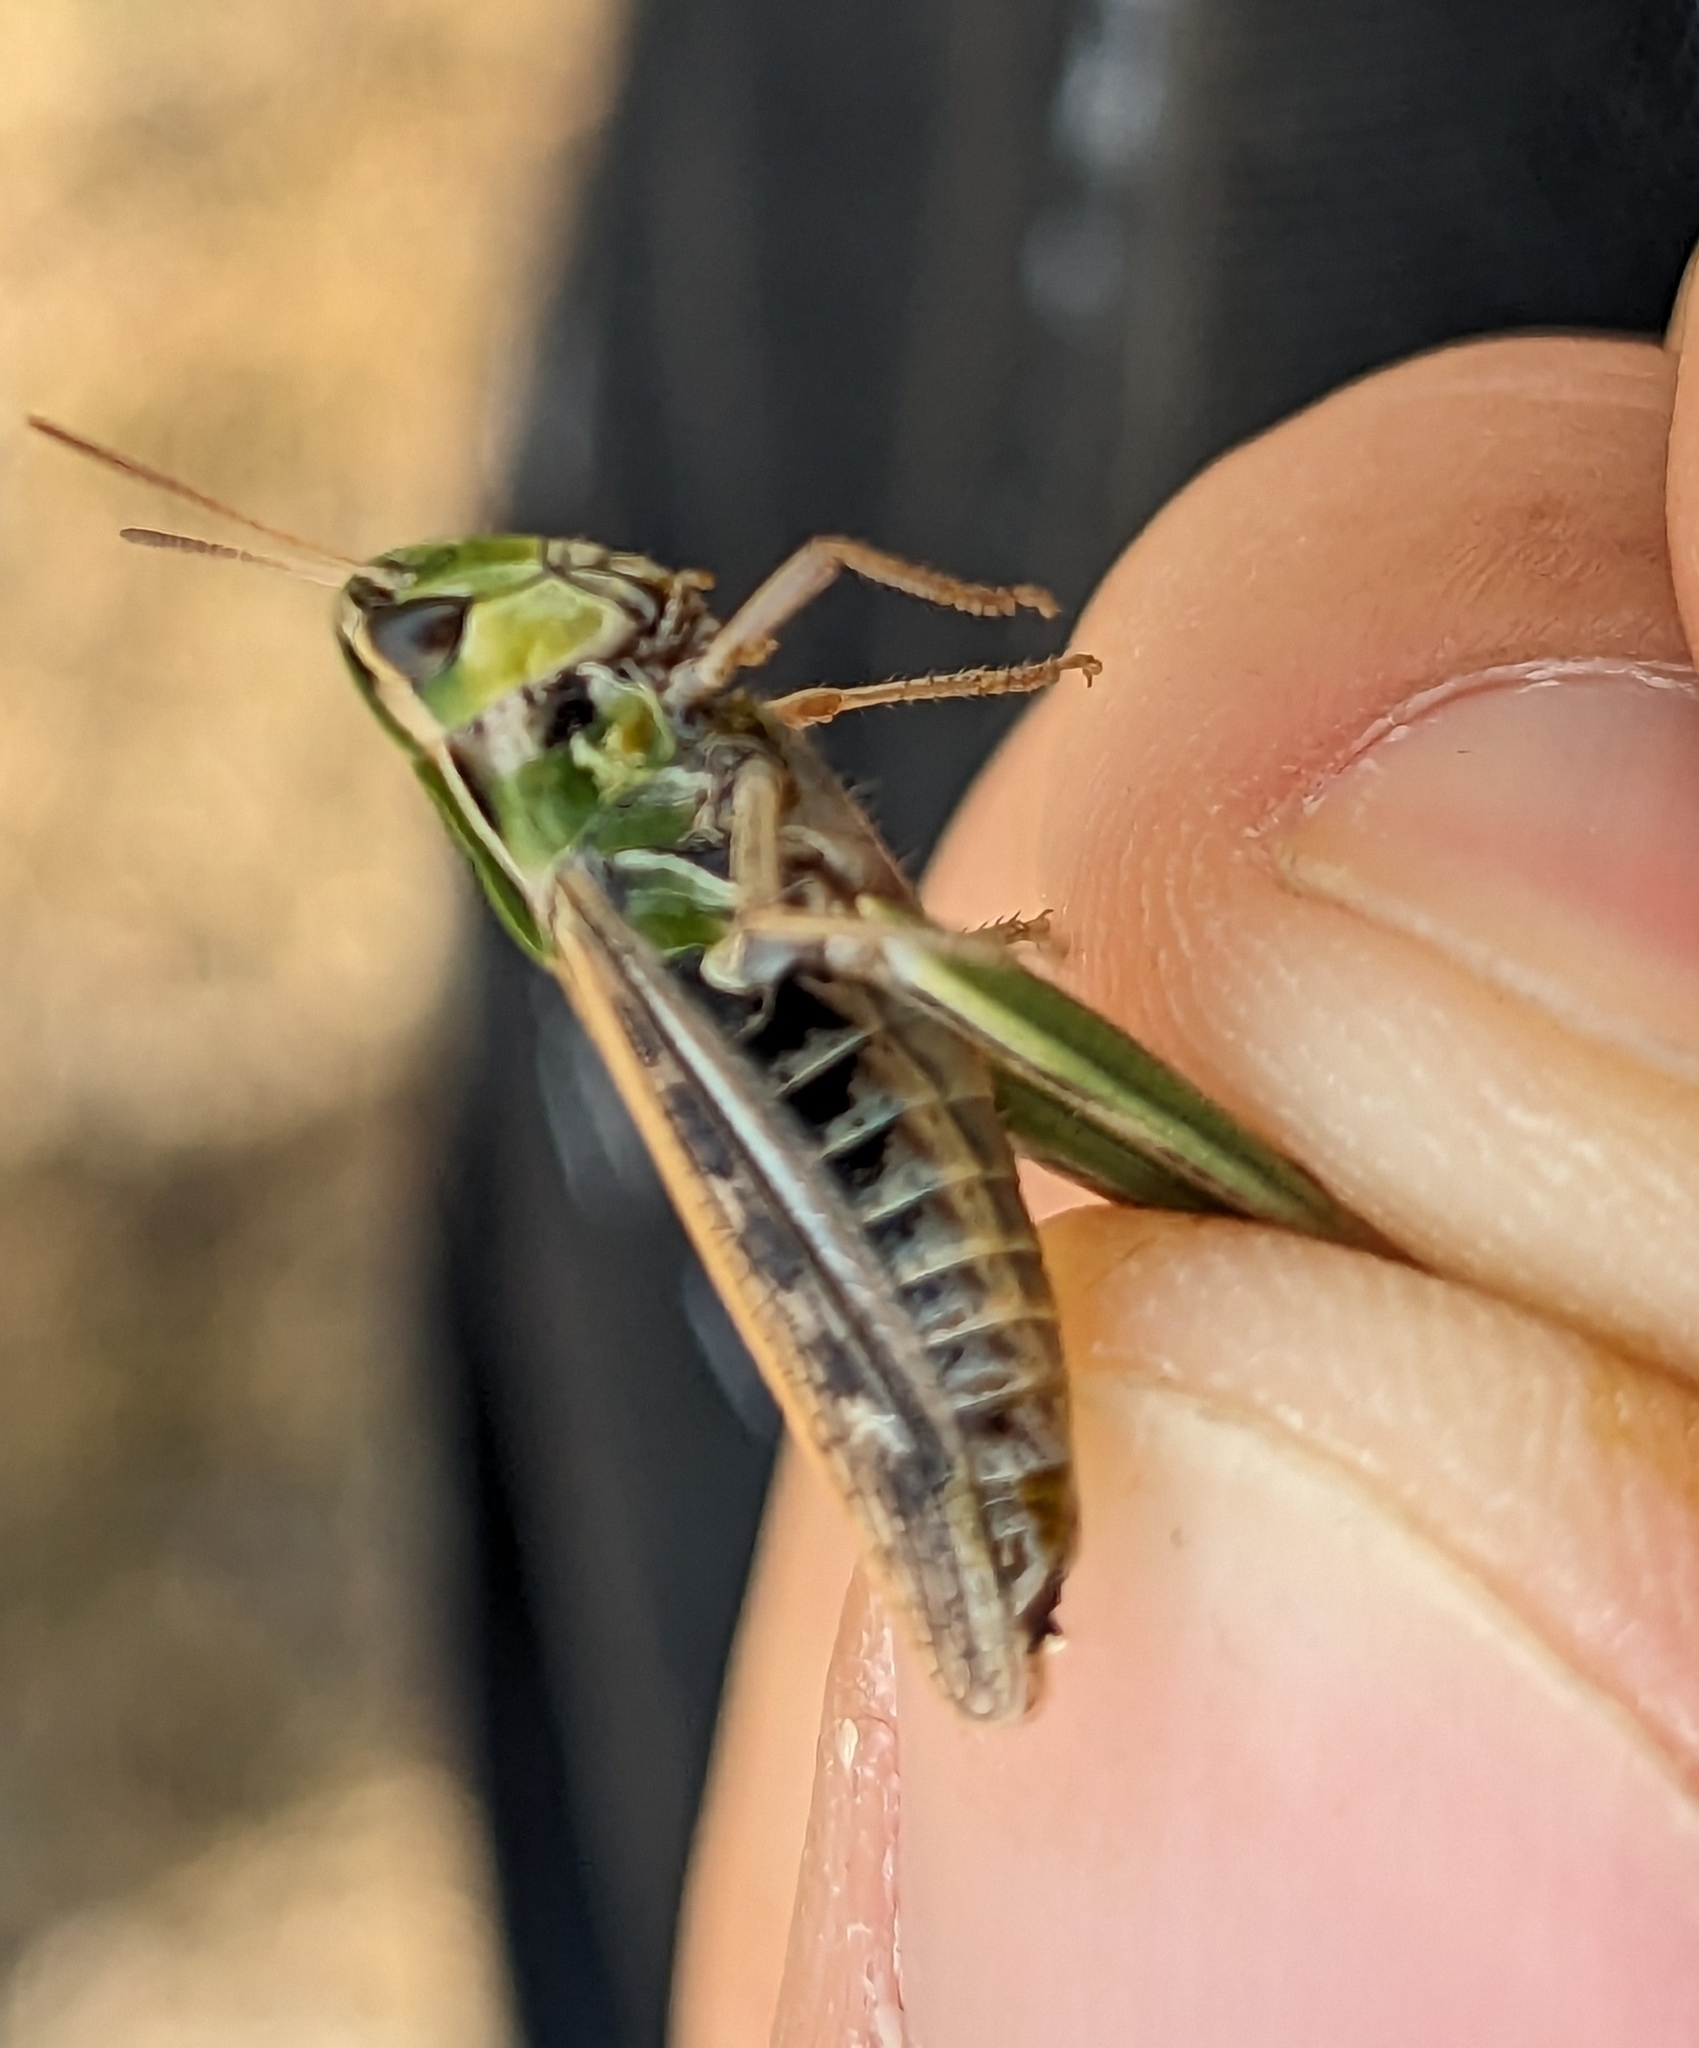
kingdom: Animalia
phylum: Arthropoda
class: Insecta
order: Orthoptera
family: Acrididae
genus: Stenobothrus
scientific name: Stenobothrus stigmaticus
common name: Lesser mottled grasshopper
